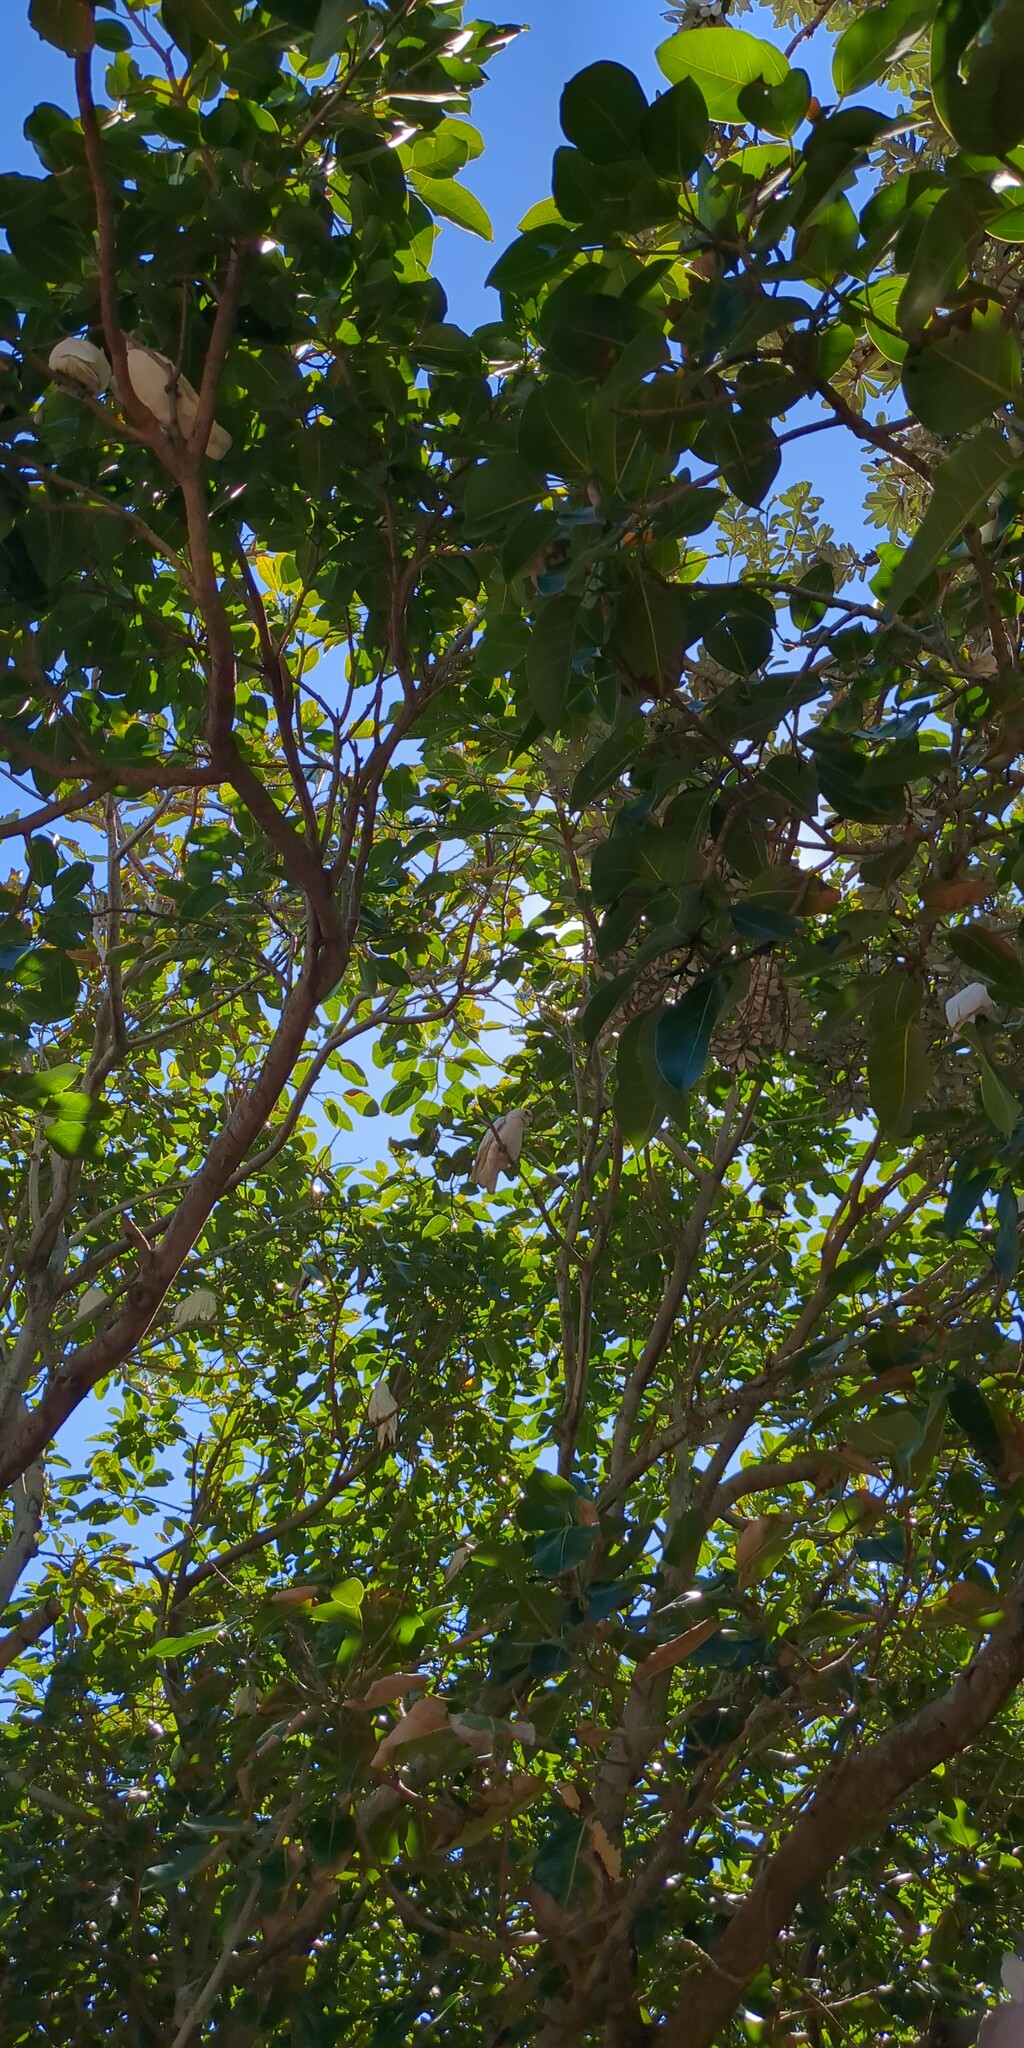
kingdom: Animalia
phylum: Chordata
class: Aves
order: Psittaciformes
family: Psittacidae
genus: Cacatua
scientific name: Cacatua sanguinea
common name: Little corella
